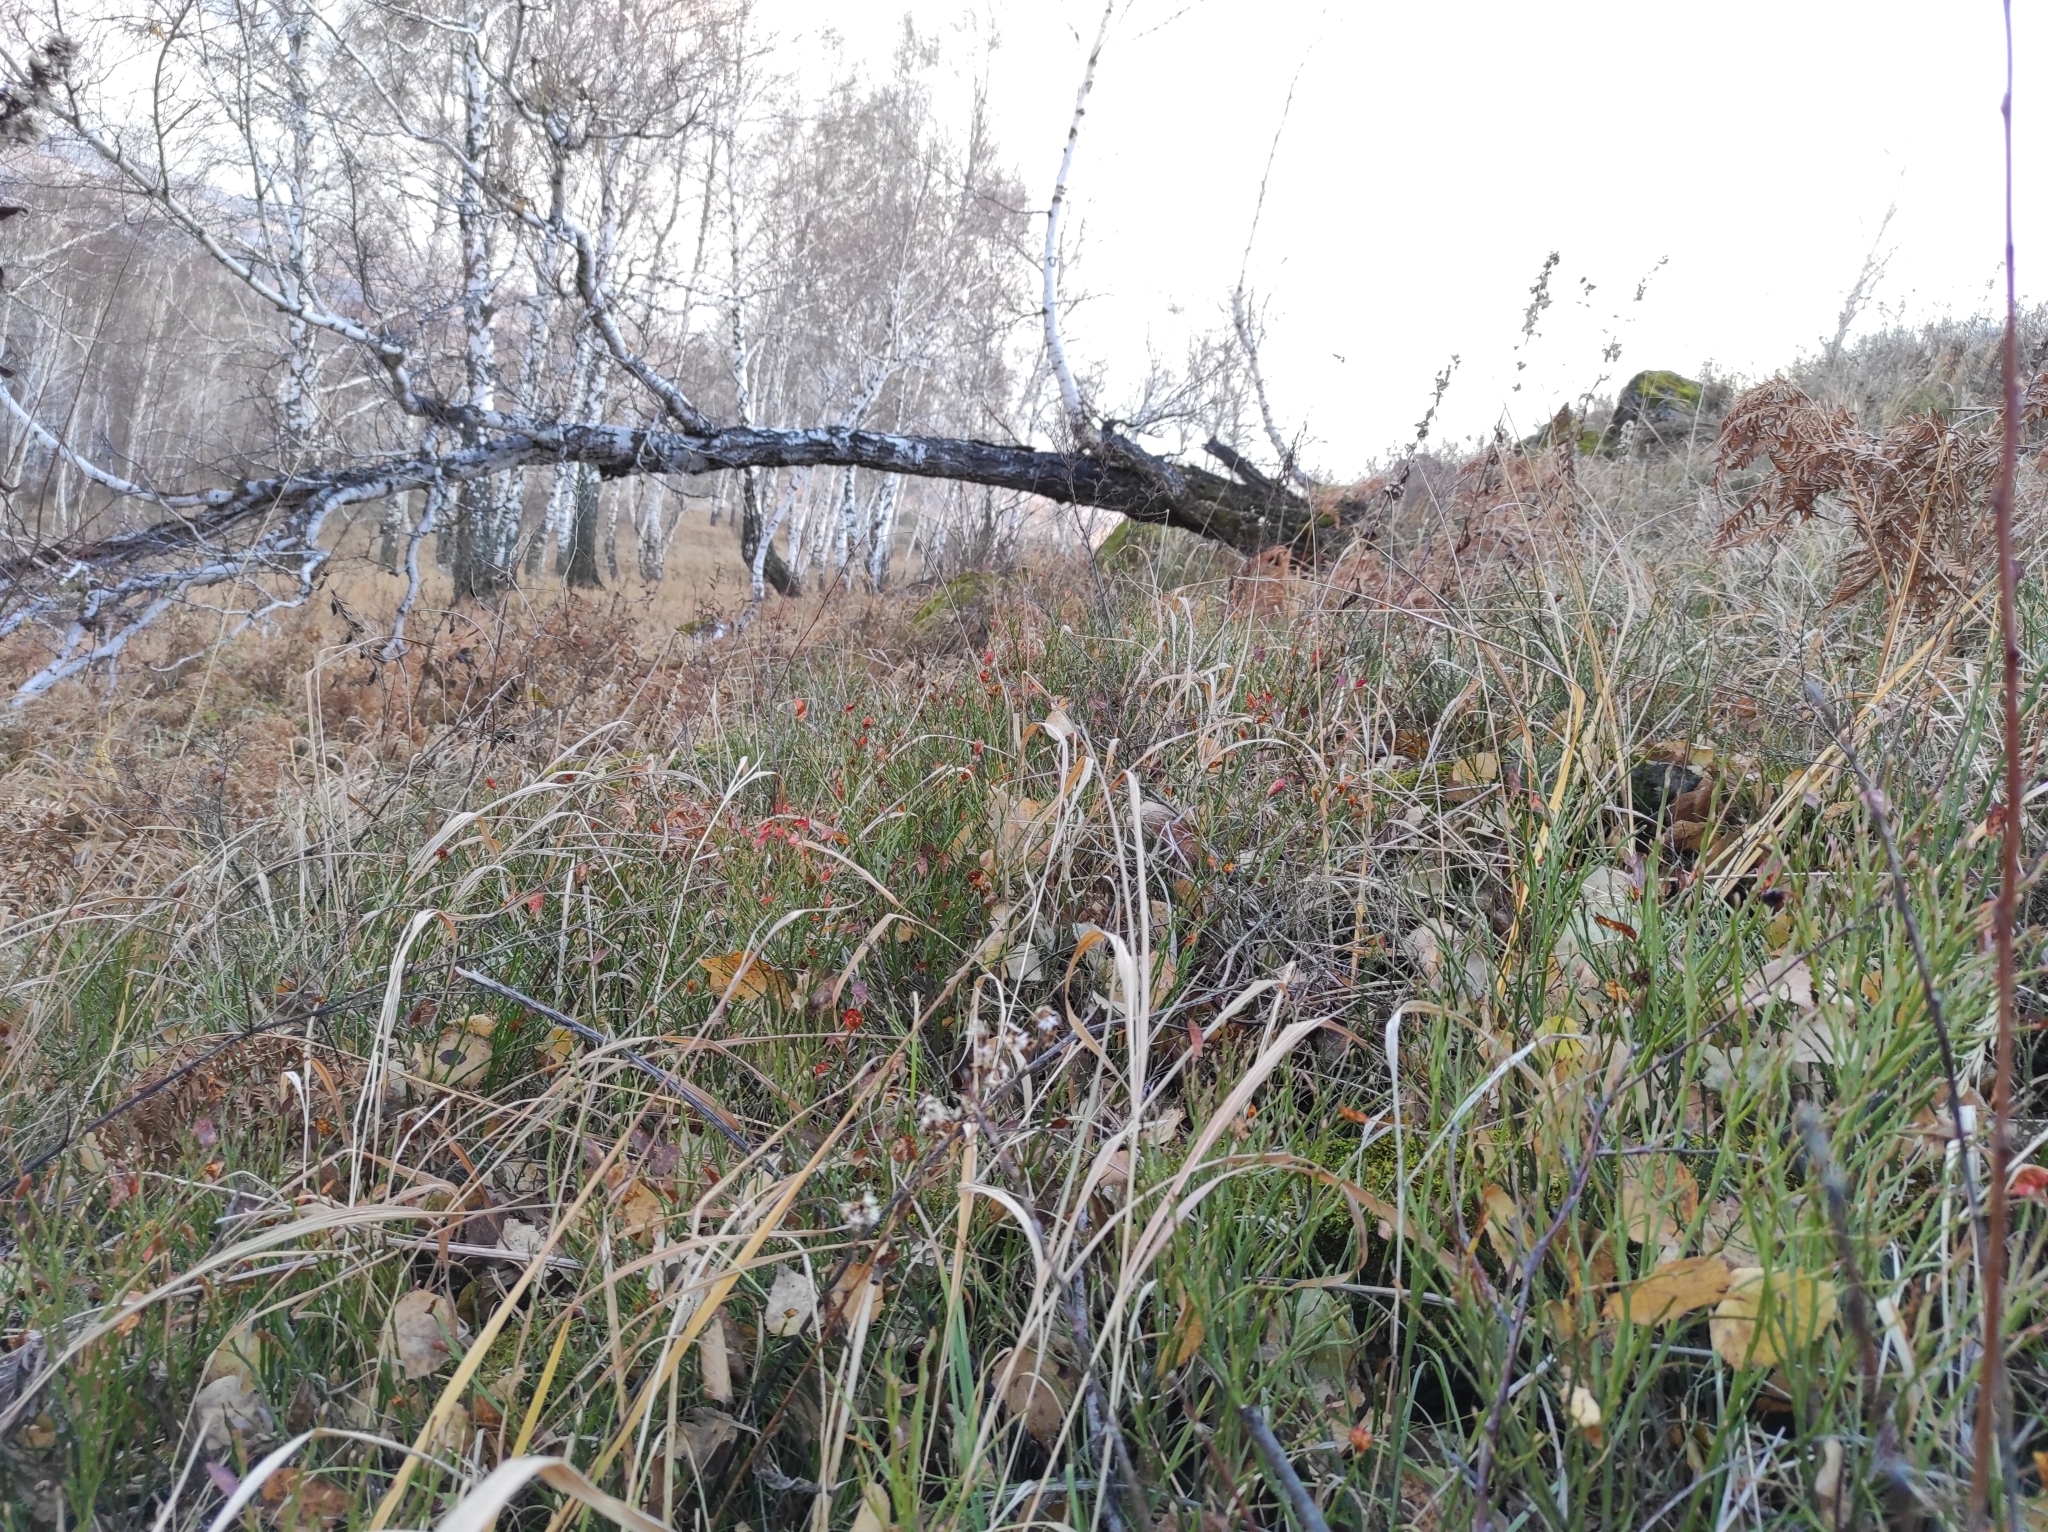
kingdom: Plantae
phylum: Tracheophyta
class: Magnoliopsida
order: Ericales
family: Ericaceae
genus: Vaccinium
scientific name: Vaccinium myrtillus
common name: Bilberry
